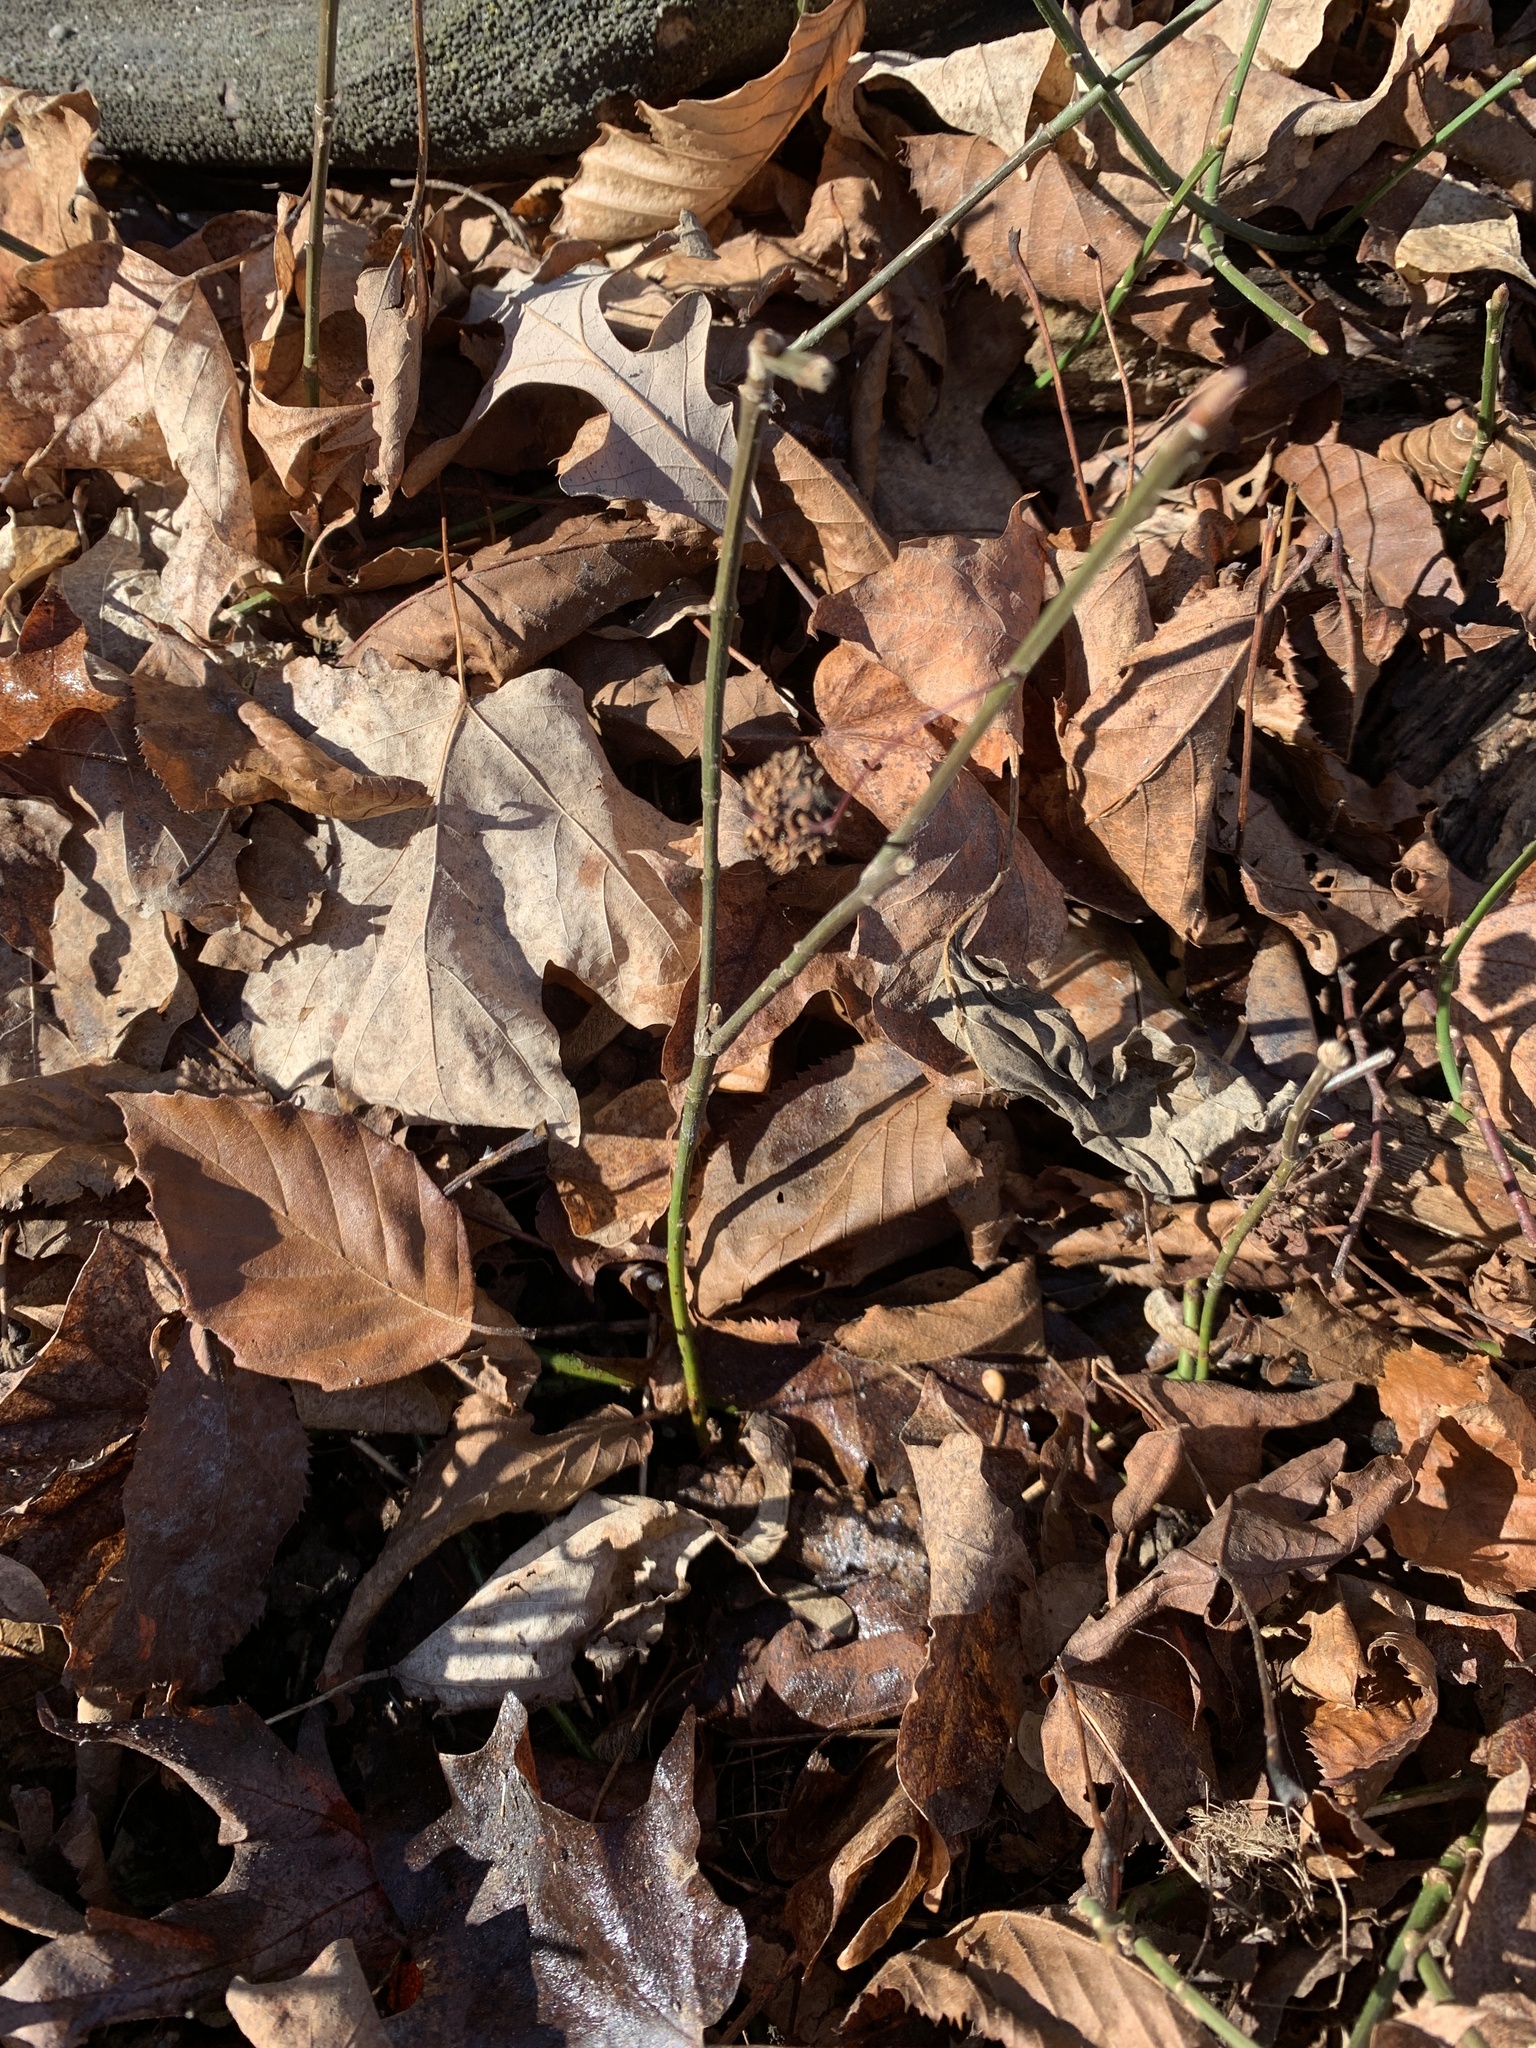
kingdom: Plantae
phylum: Tracheophyta
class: Magnoliopsida
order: Celastrales
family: Celastraceae
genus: Euonymus
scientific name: Euonymus obovatus
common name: Running strawberry-bush
